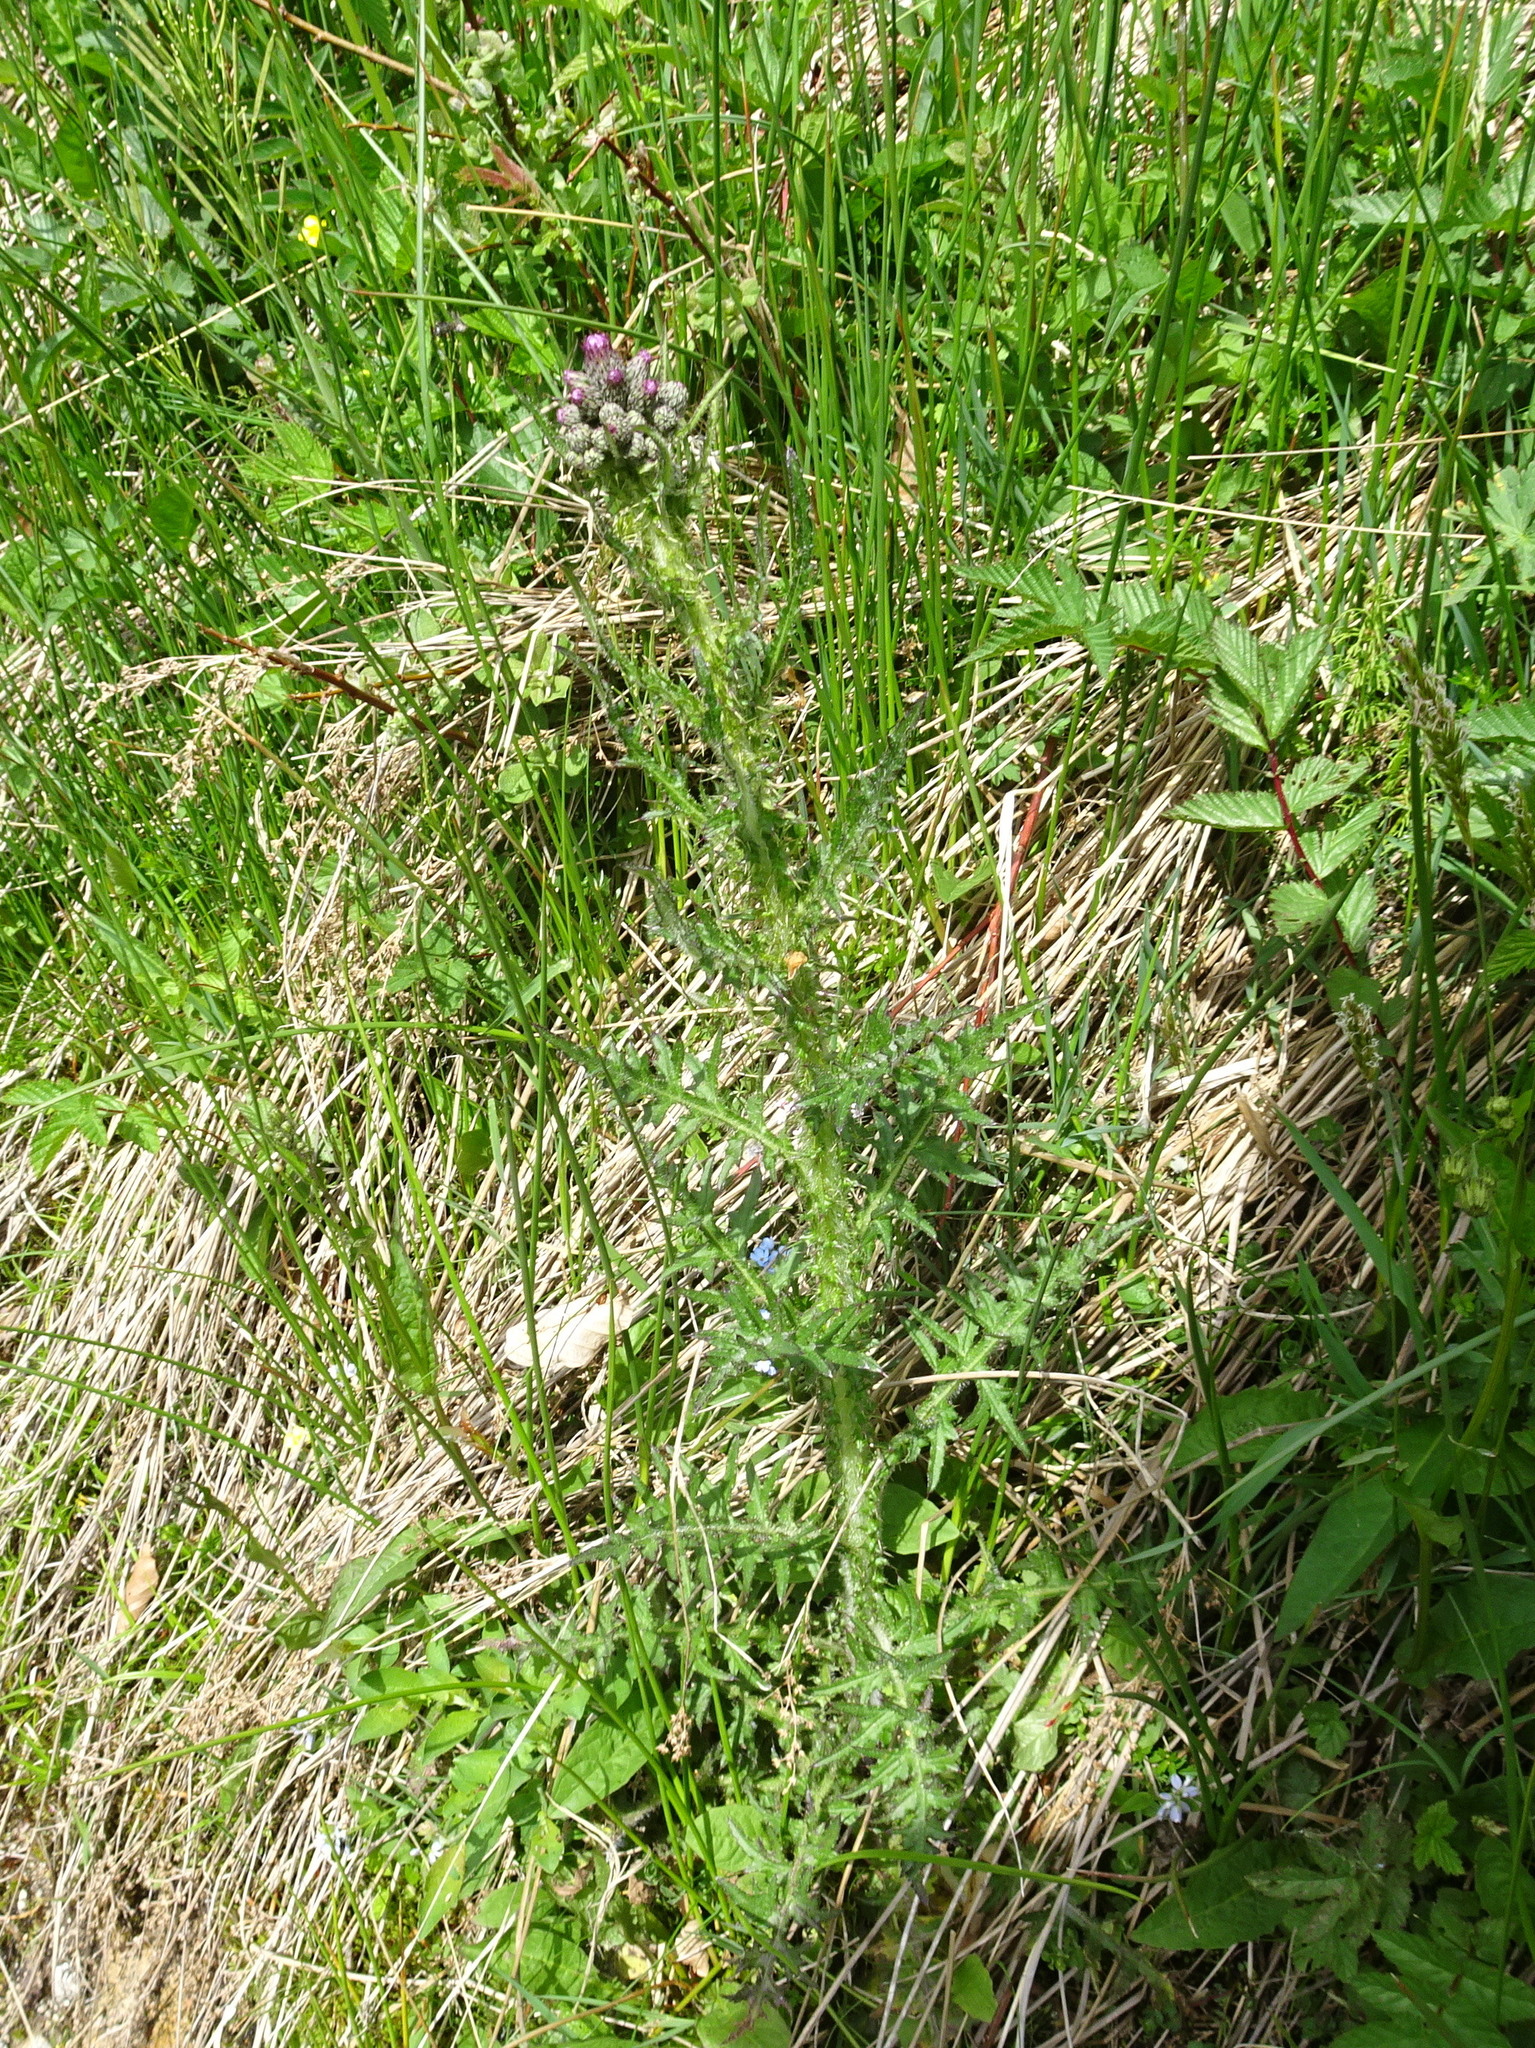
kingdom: Plantae
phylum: Tracheophyta
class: Magnoliopsida
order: Asterales
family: Asteraceae
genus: Cirsium
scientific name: Cirsium palustre
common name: Marsh thistle
